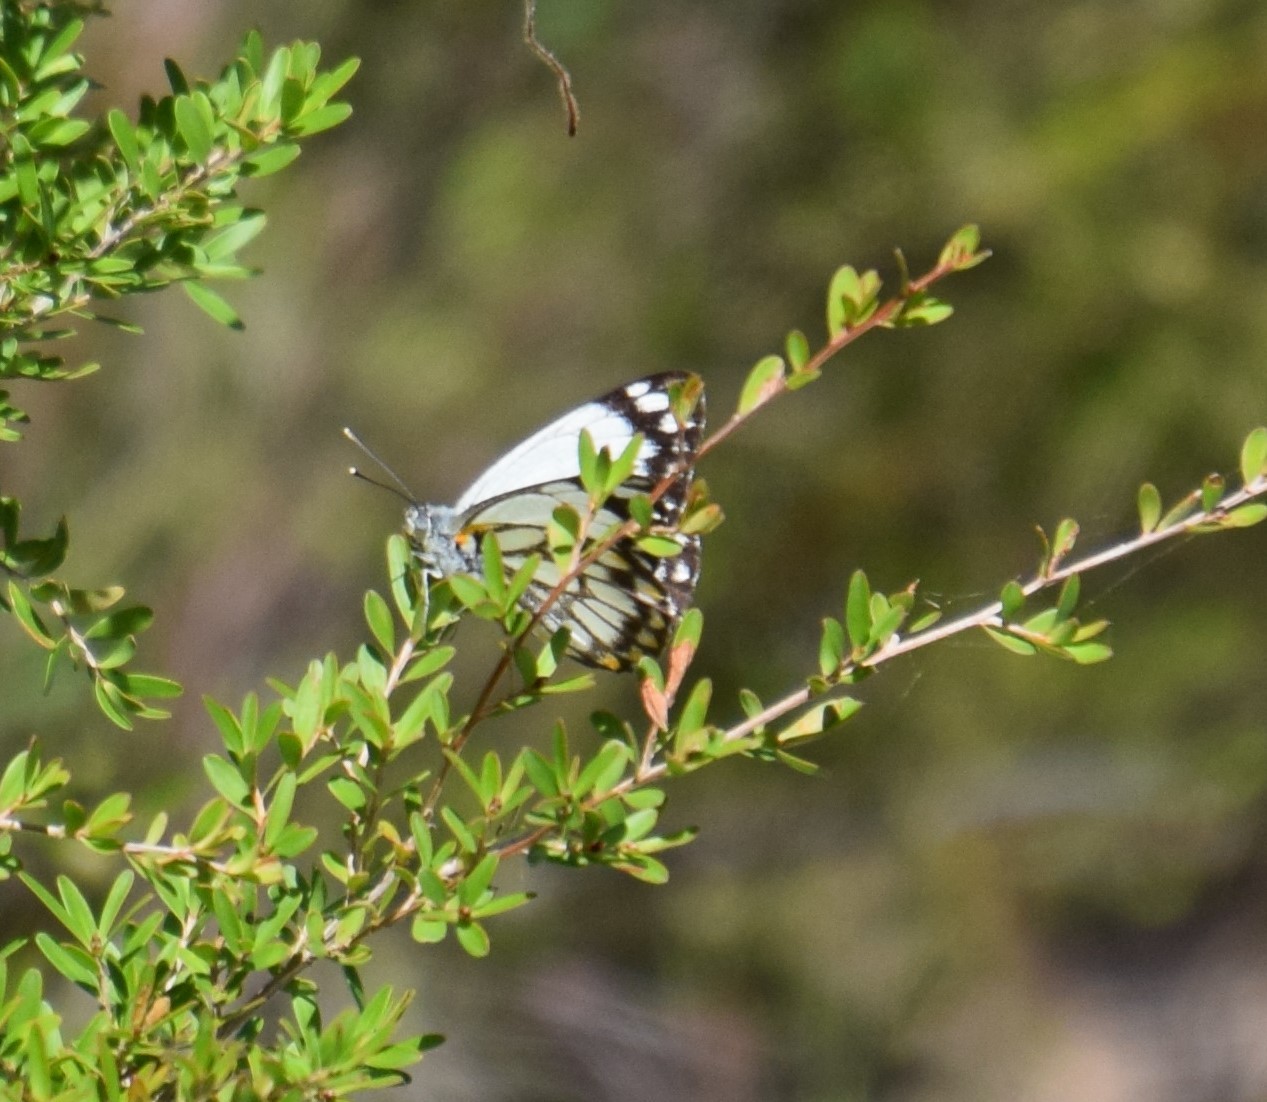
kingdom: Animalia
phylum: Arthropoda
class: Insecta
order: Lepidoptera
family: Pieridae
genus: Belenois
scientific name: Belenois java
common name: Caper white
